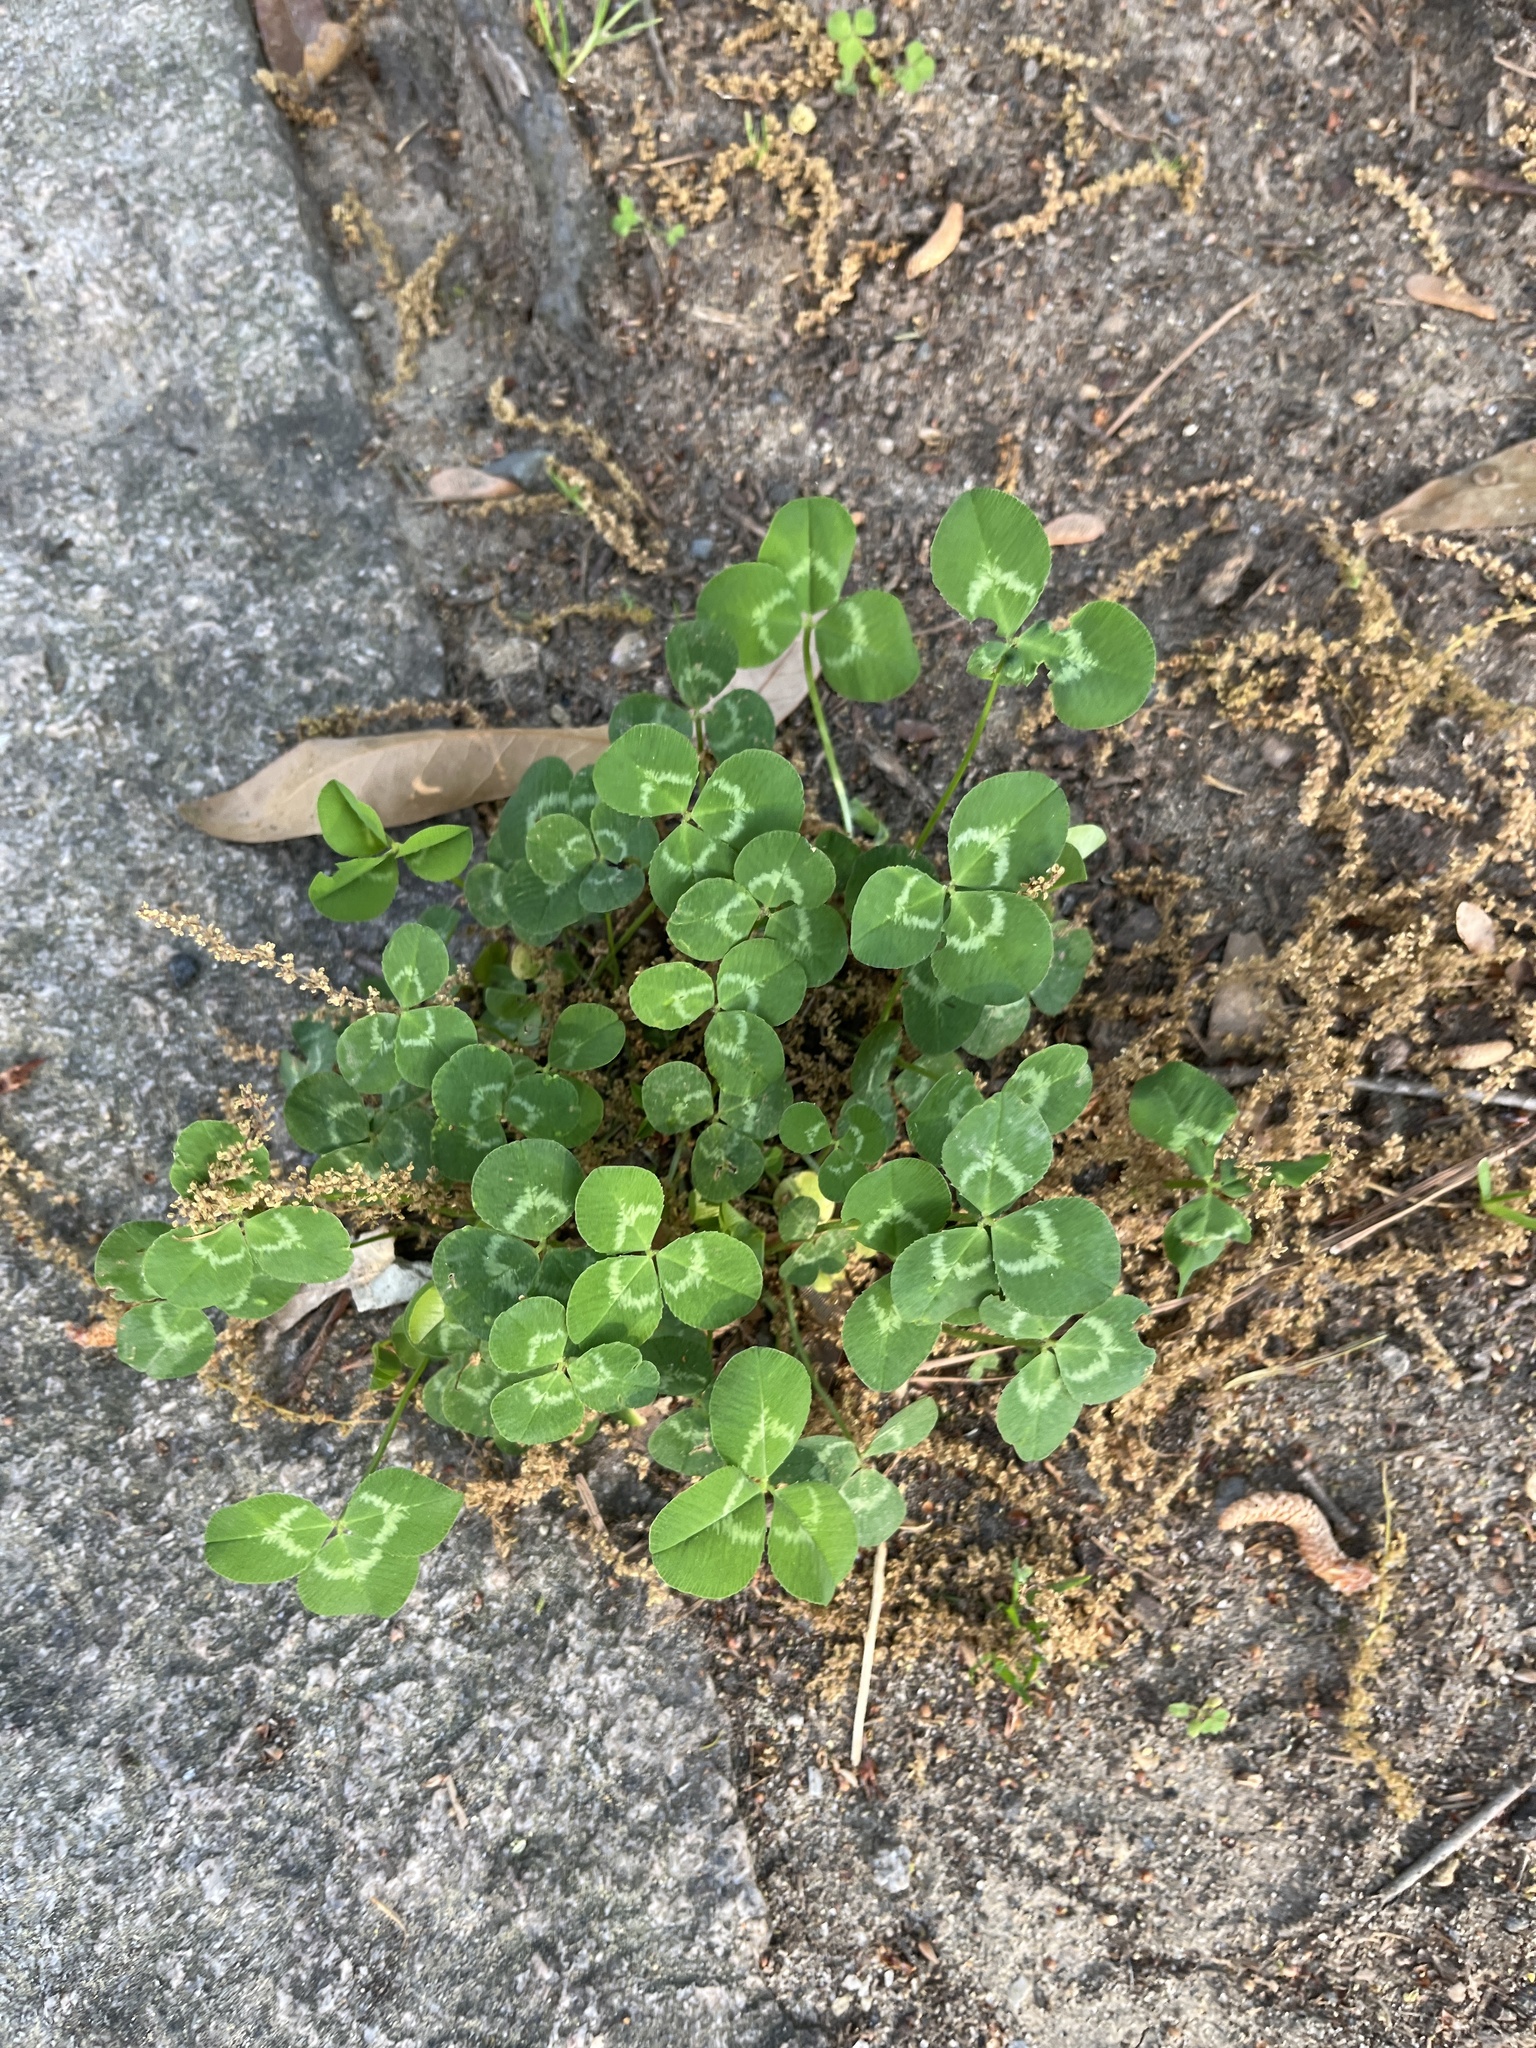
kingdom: Plantae
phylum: Tracheophyta
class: Magnoliopsida
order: Fabales
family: Fabaceae
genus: Trifolium
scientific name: Trifolium repens
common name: White clover
